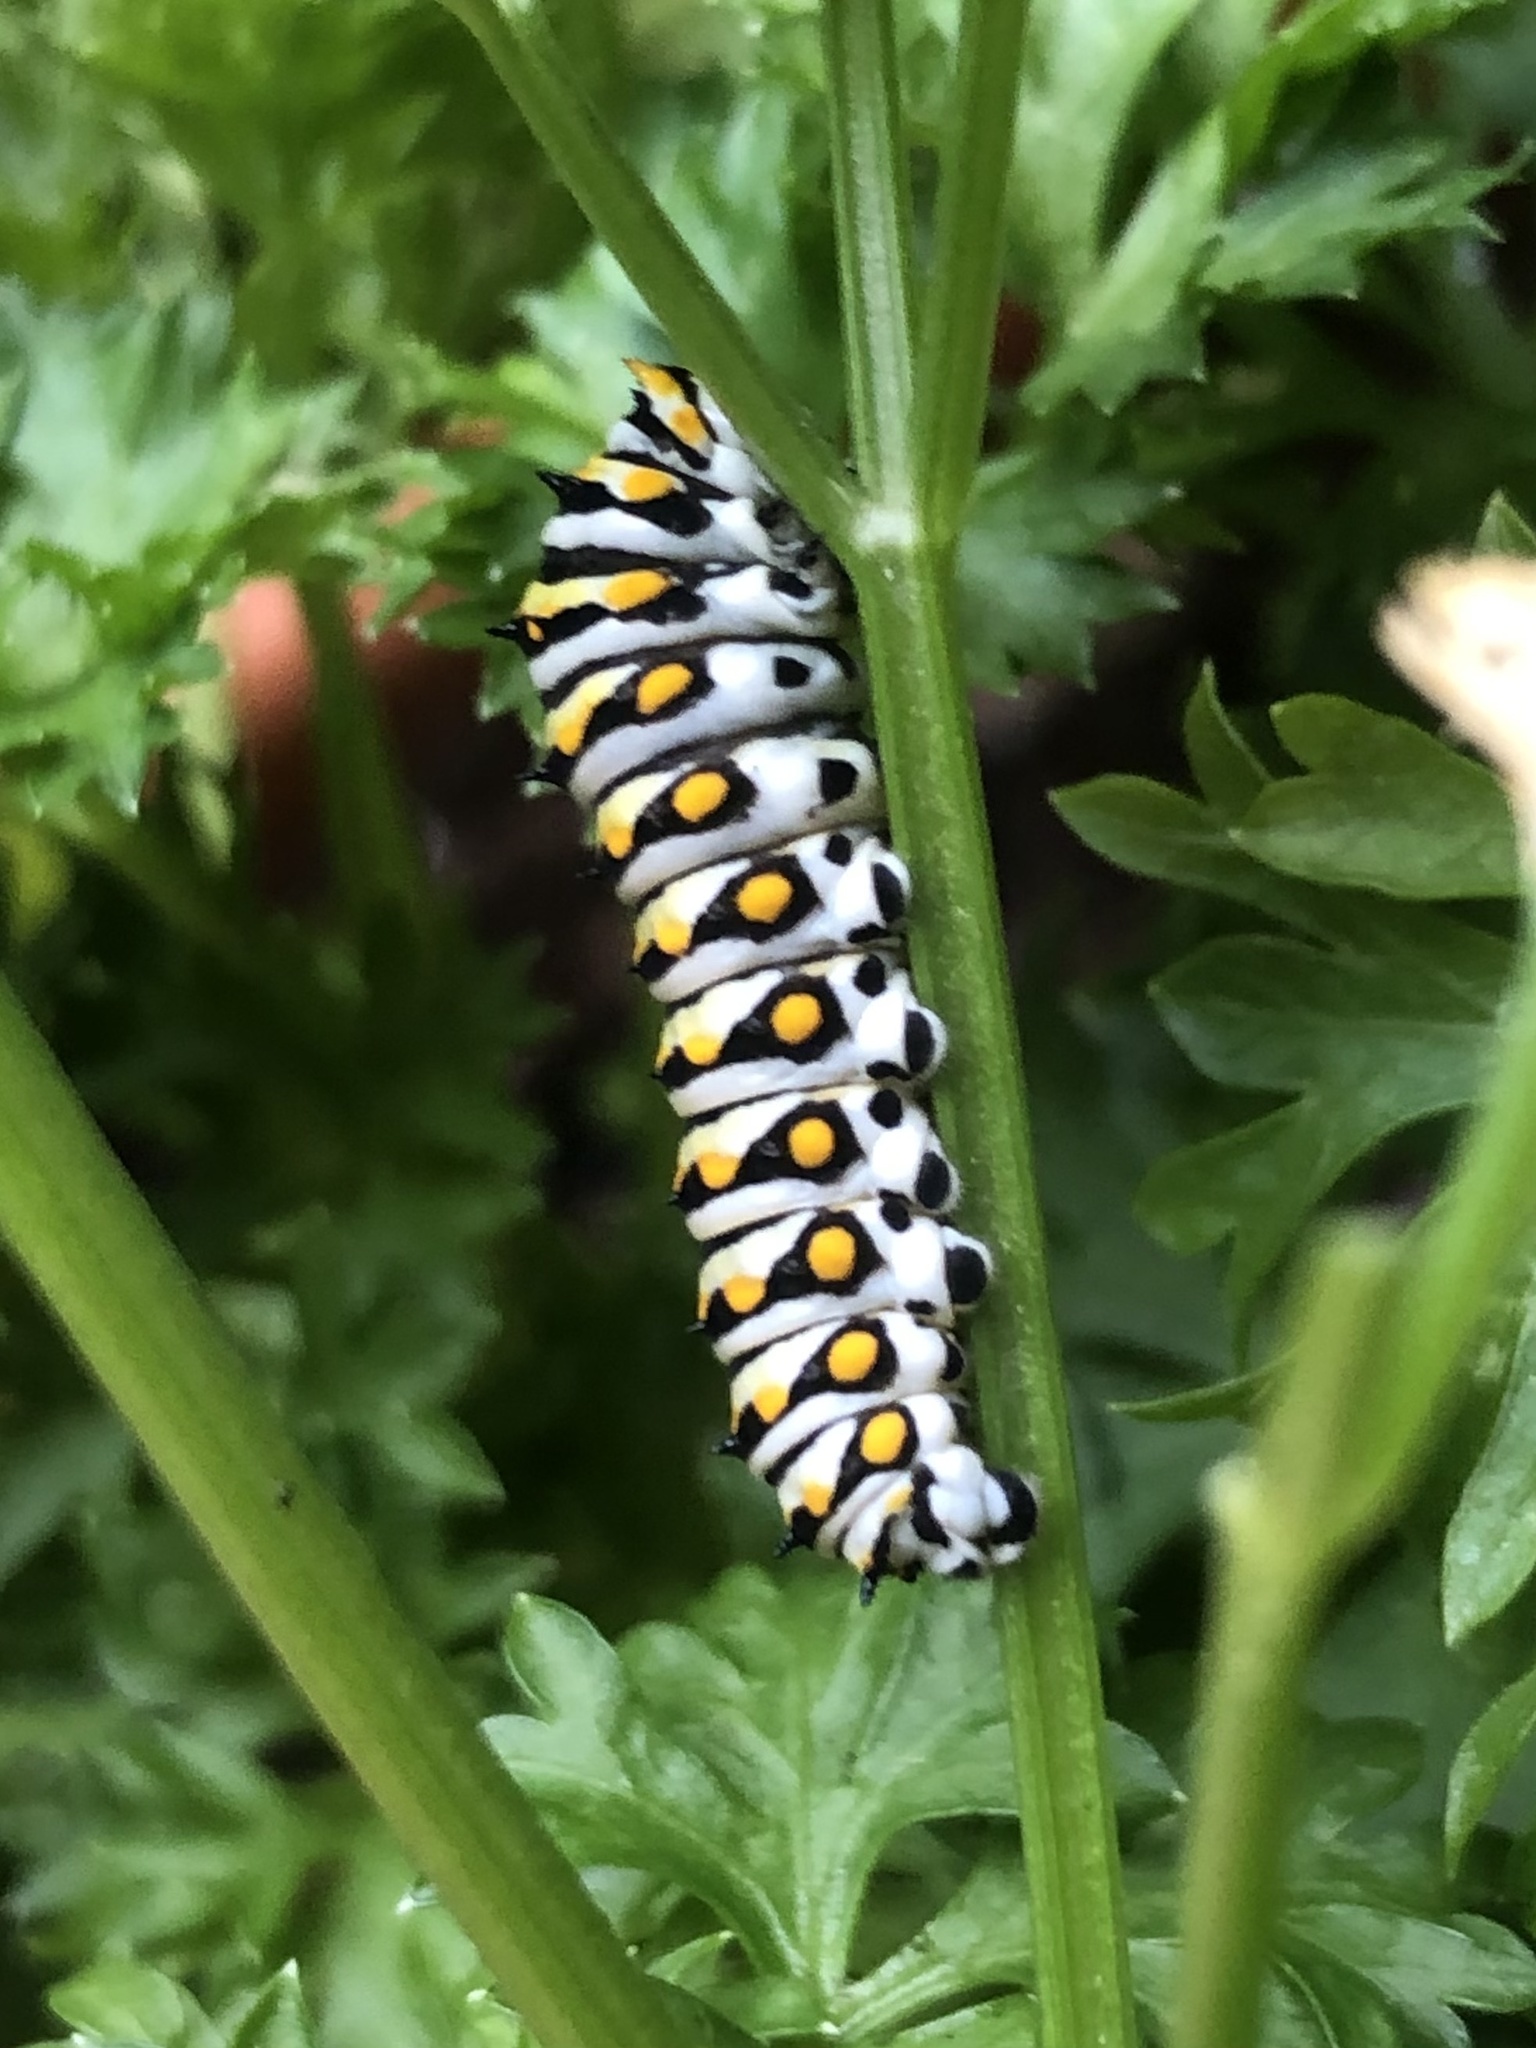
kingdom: Animalia
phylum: Arthropoda
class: Insecta
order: Lepidoptera
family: Papilionidae
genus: Papilio
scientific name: Papilio polyxenes
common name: Black swallowtail
